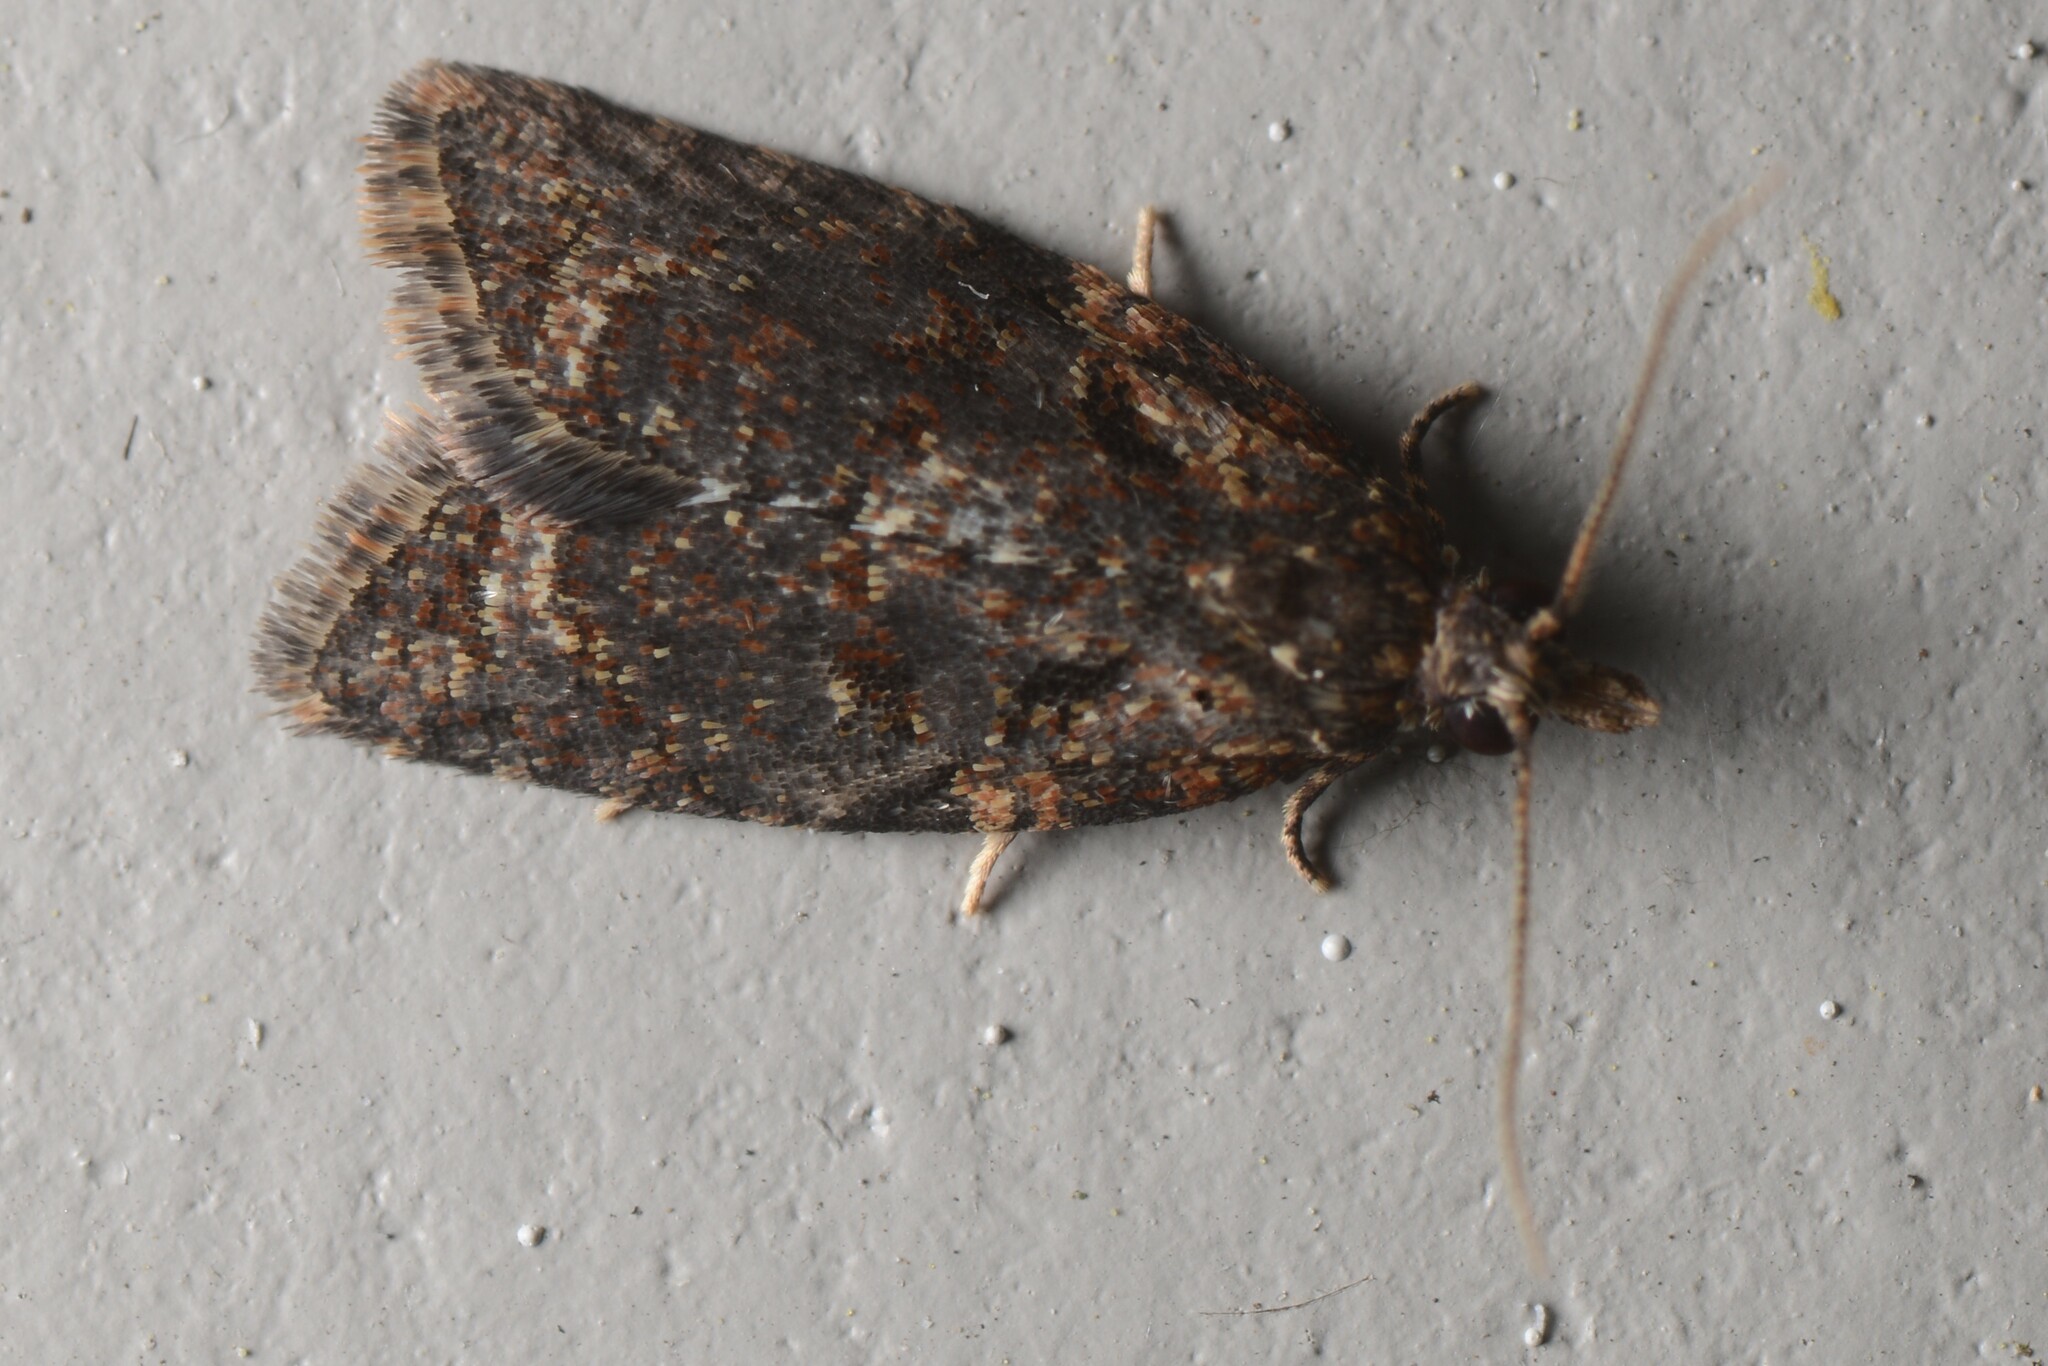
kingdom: Animalia
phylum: Arthropoda
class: Insecta
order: Lepidoptera
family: Tortricidae
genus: Capua
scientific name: Capua intractana
